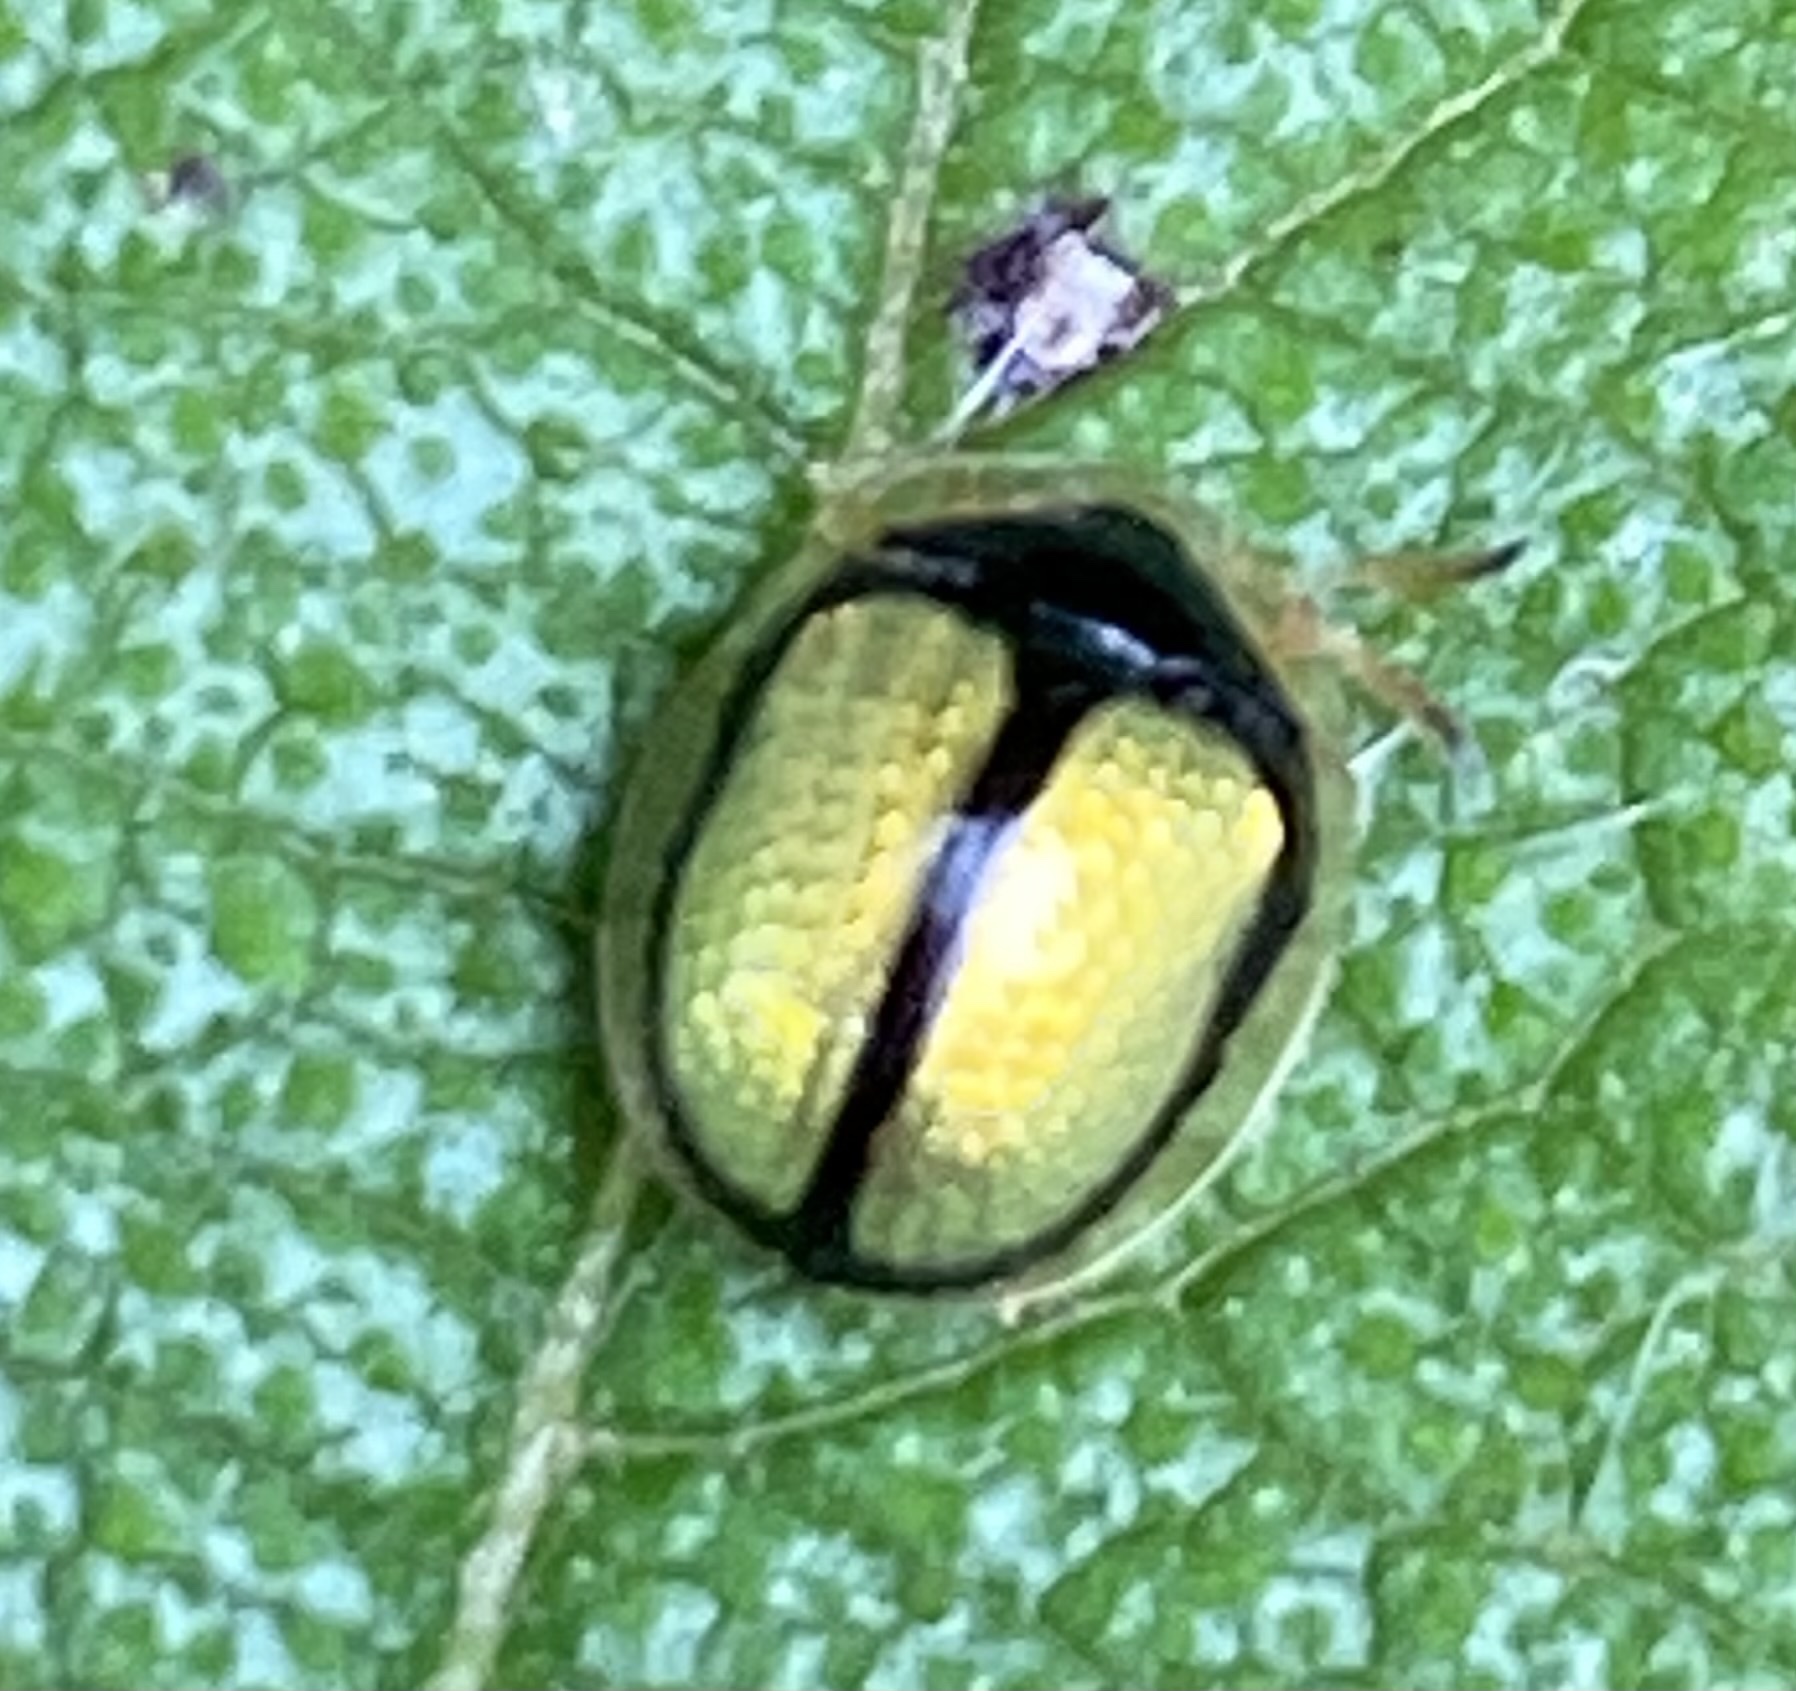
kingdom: Animalia
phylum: Arthropoda
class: Insecta
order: Coleoptera
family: Chrysomelidae
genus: Charidotis
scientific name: Charidotis nigrocincta
